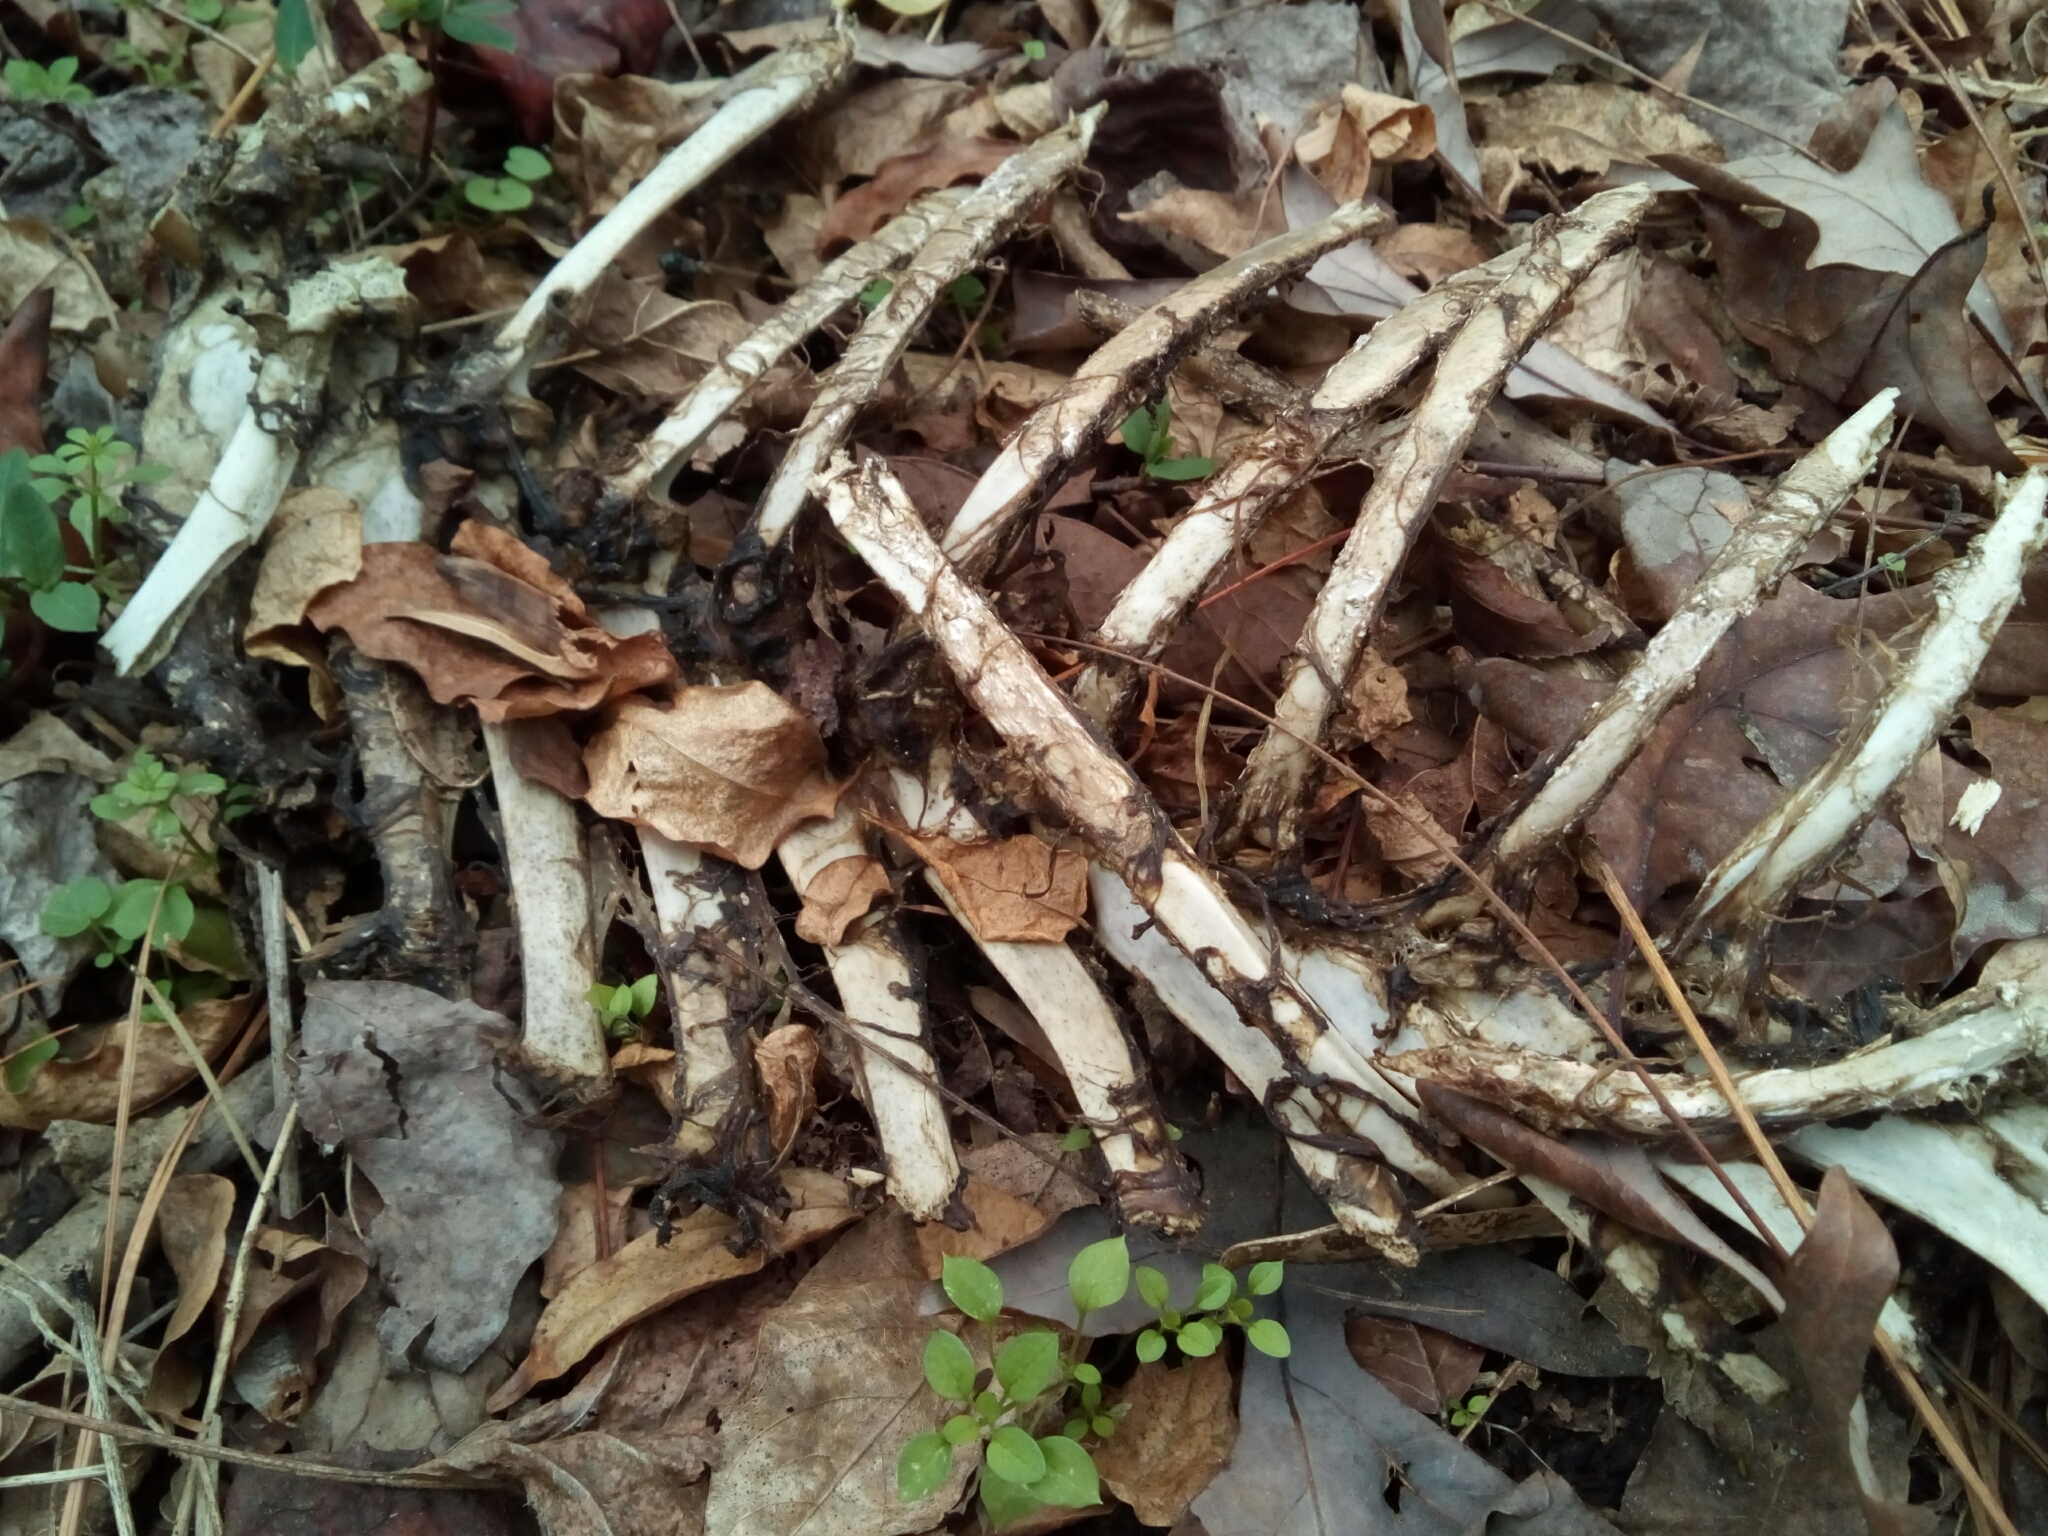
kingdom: Animalia
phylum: Chordata
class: Mammalia
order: Artiodactyla
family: Cervidae
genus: Odocoileus
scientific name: Odocoileus virginianus
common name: White-tailed deer
